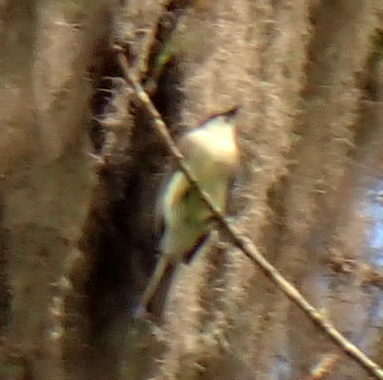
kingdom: Animalia
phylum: Chordata
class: Aves
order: Passeriformes
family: Tyrannidae
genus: Sayornis
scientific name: Sayornis phoebe
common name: Eastern phoebe
